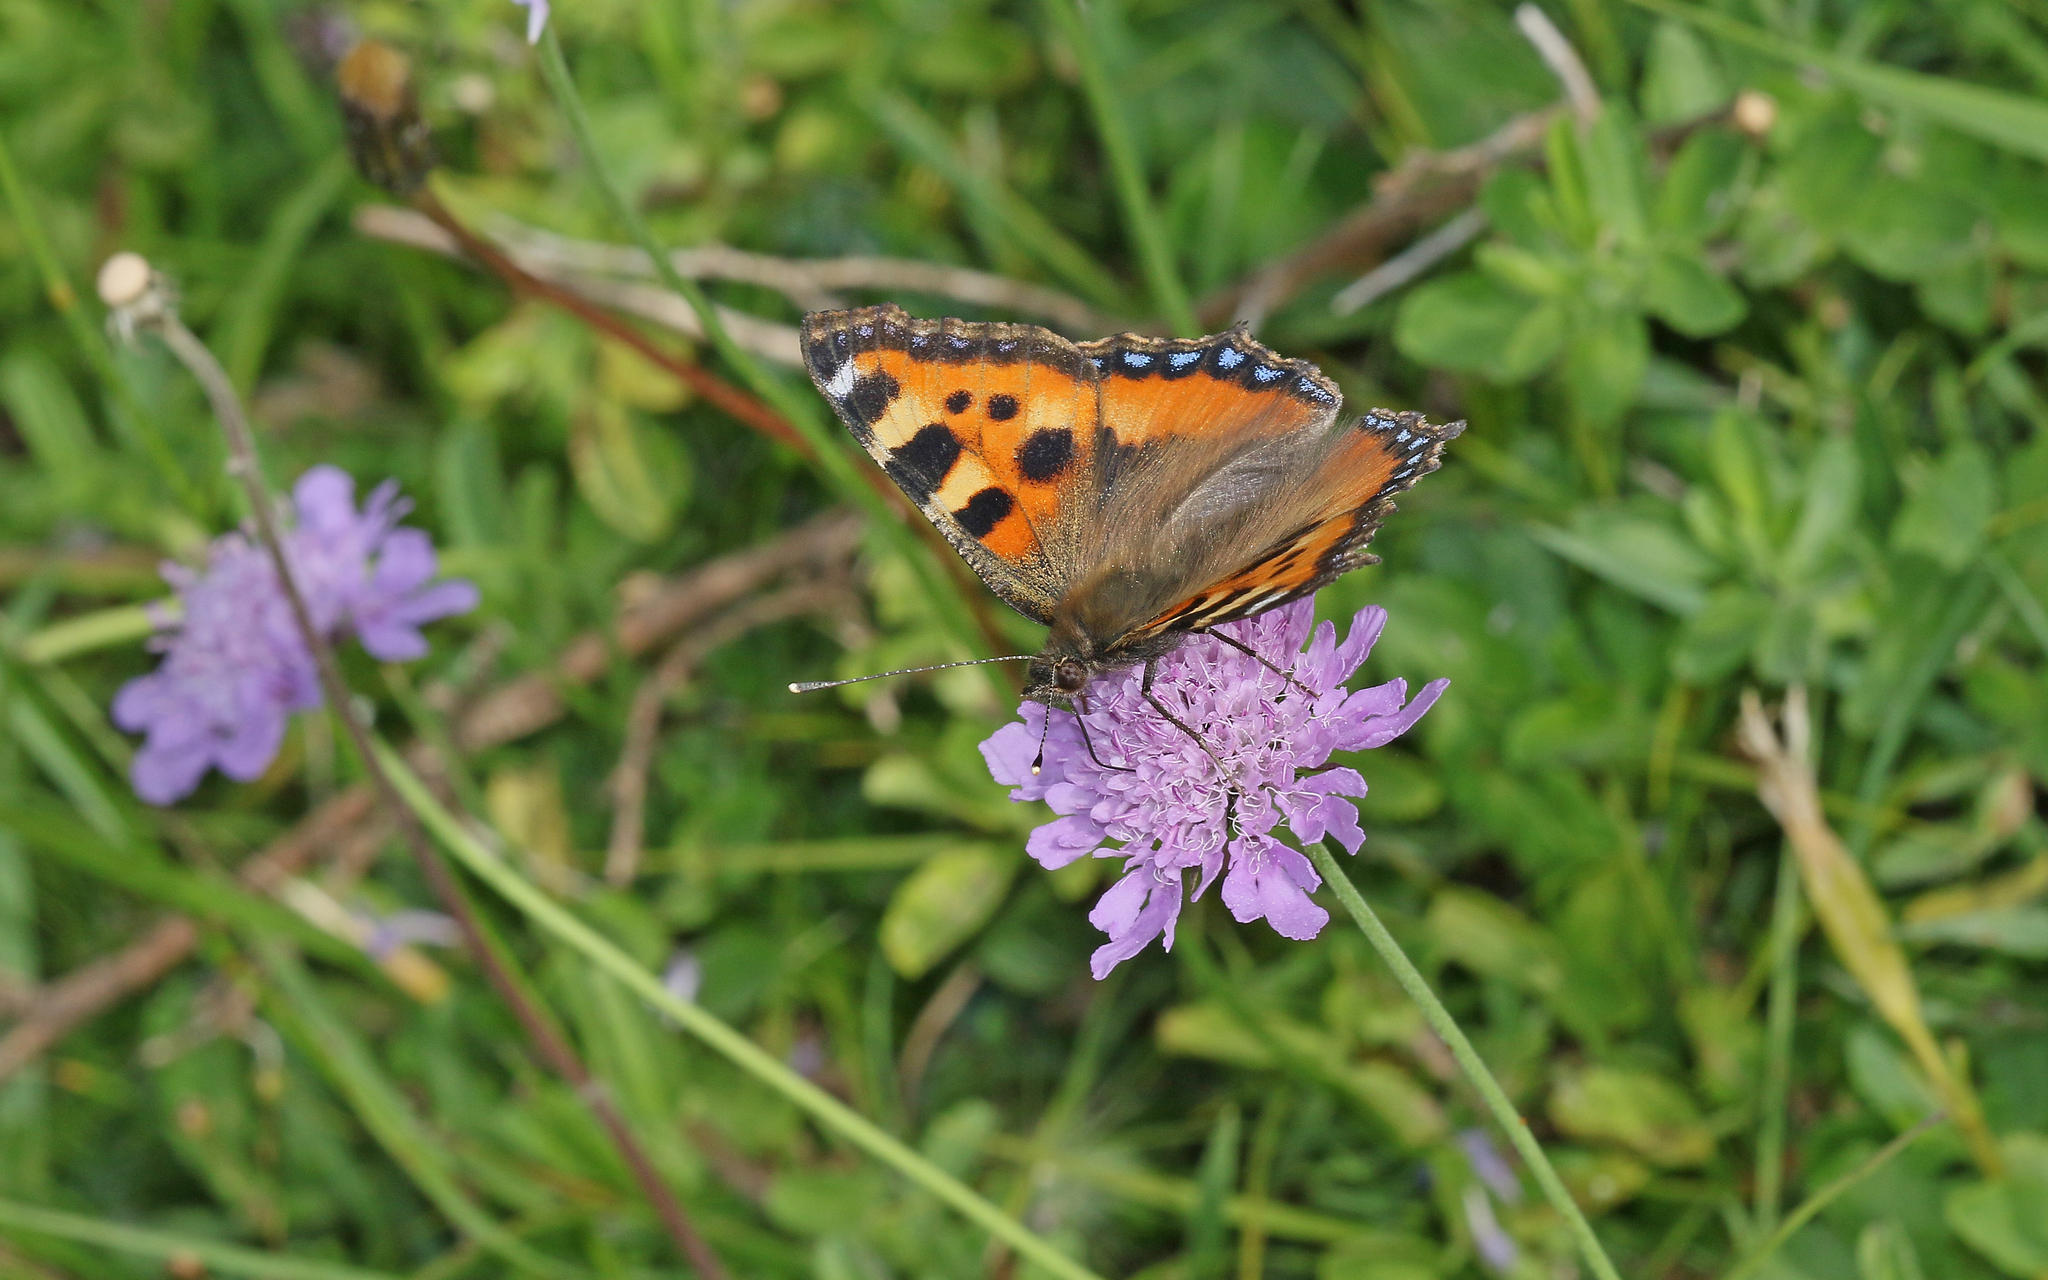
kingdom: Animalia
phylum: Arthropoda
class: Insecta
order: Lepidoptera
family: Nymphalidae
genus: Aglais
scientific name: Aglais urticae
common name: Small tortoiseshell
